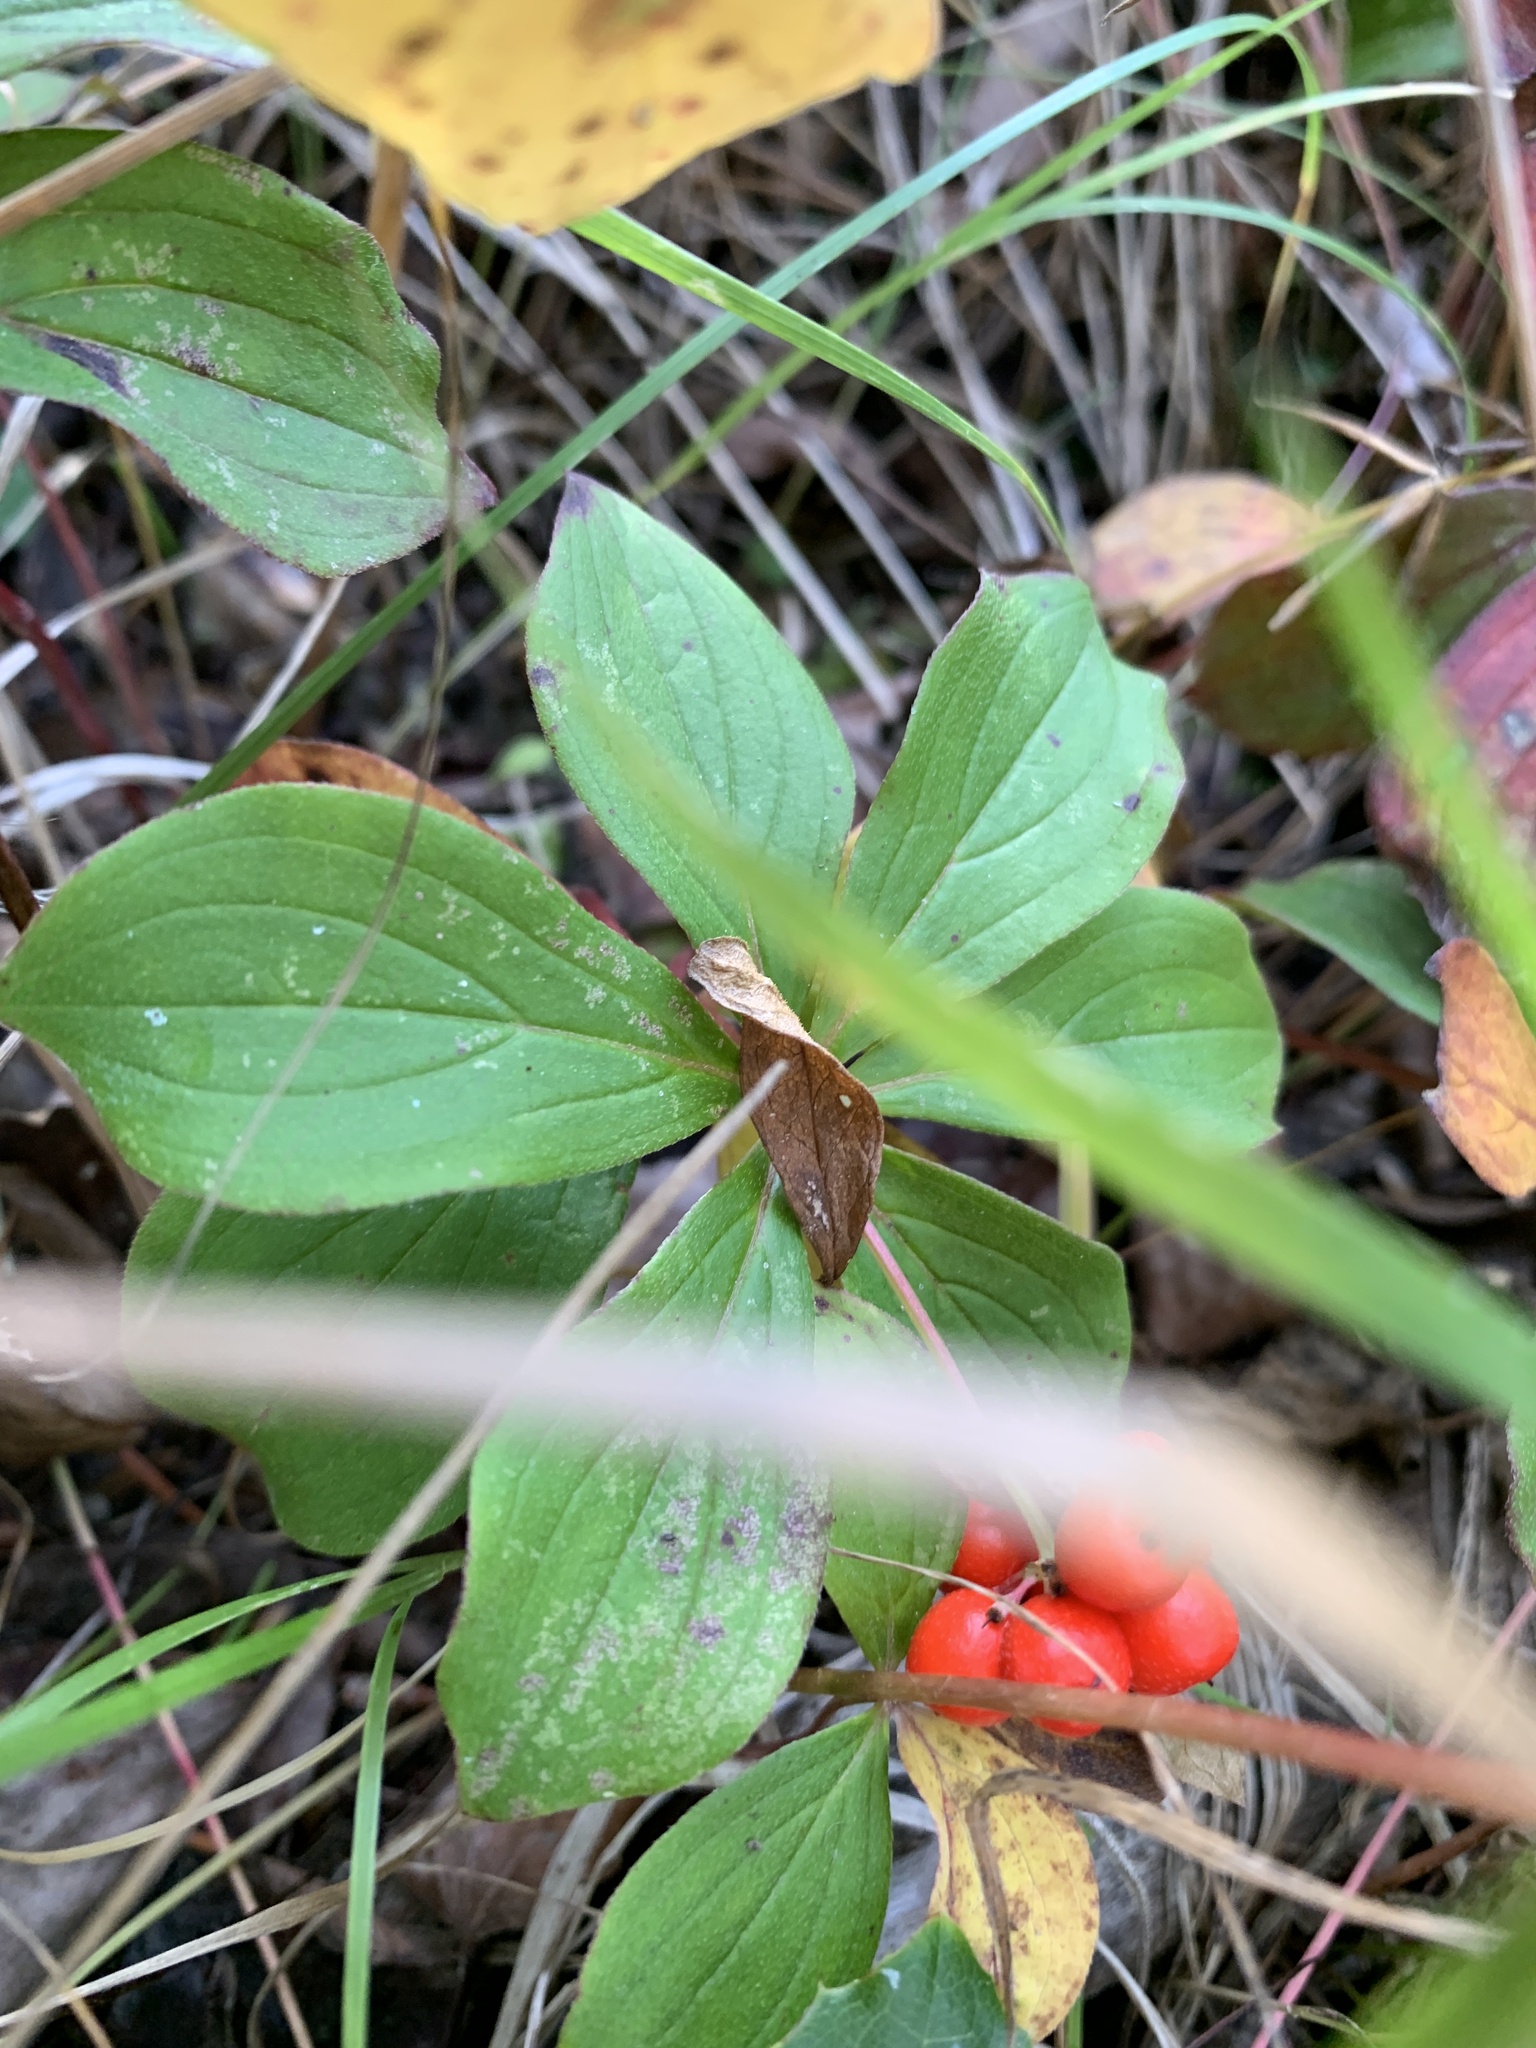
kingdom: Plantae
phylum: Tracheophyta
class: Magnoliopsida
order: Cornales
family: Cornaceae
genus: Cornus
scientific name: Cornus canadensis
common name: Creeping dogwood
